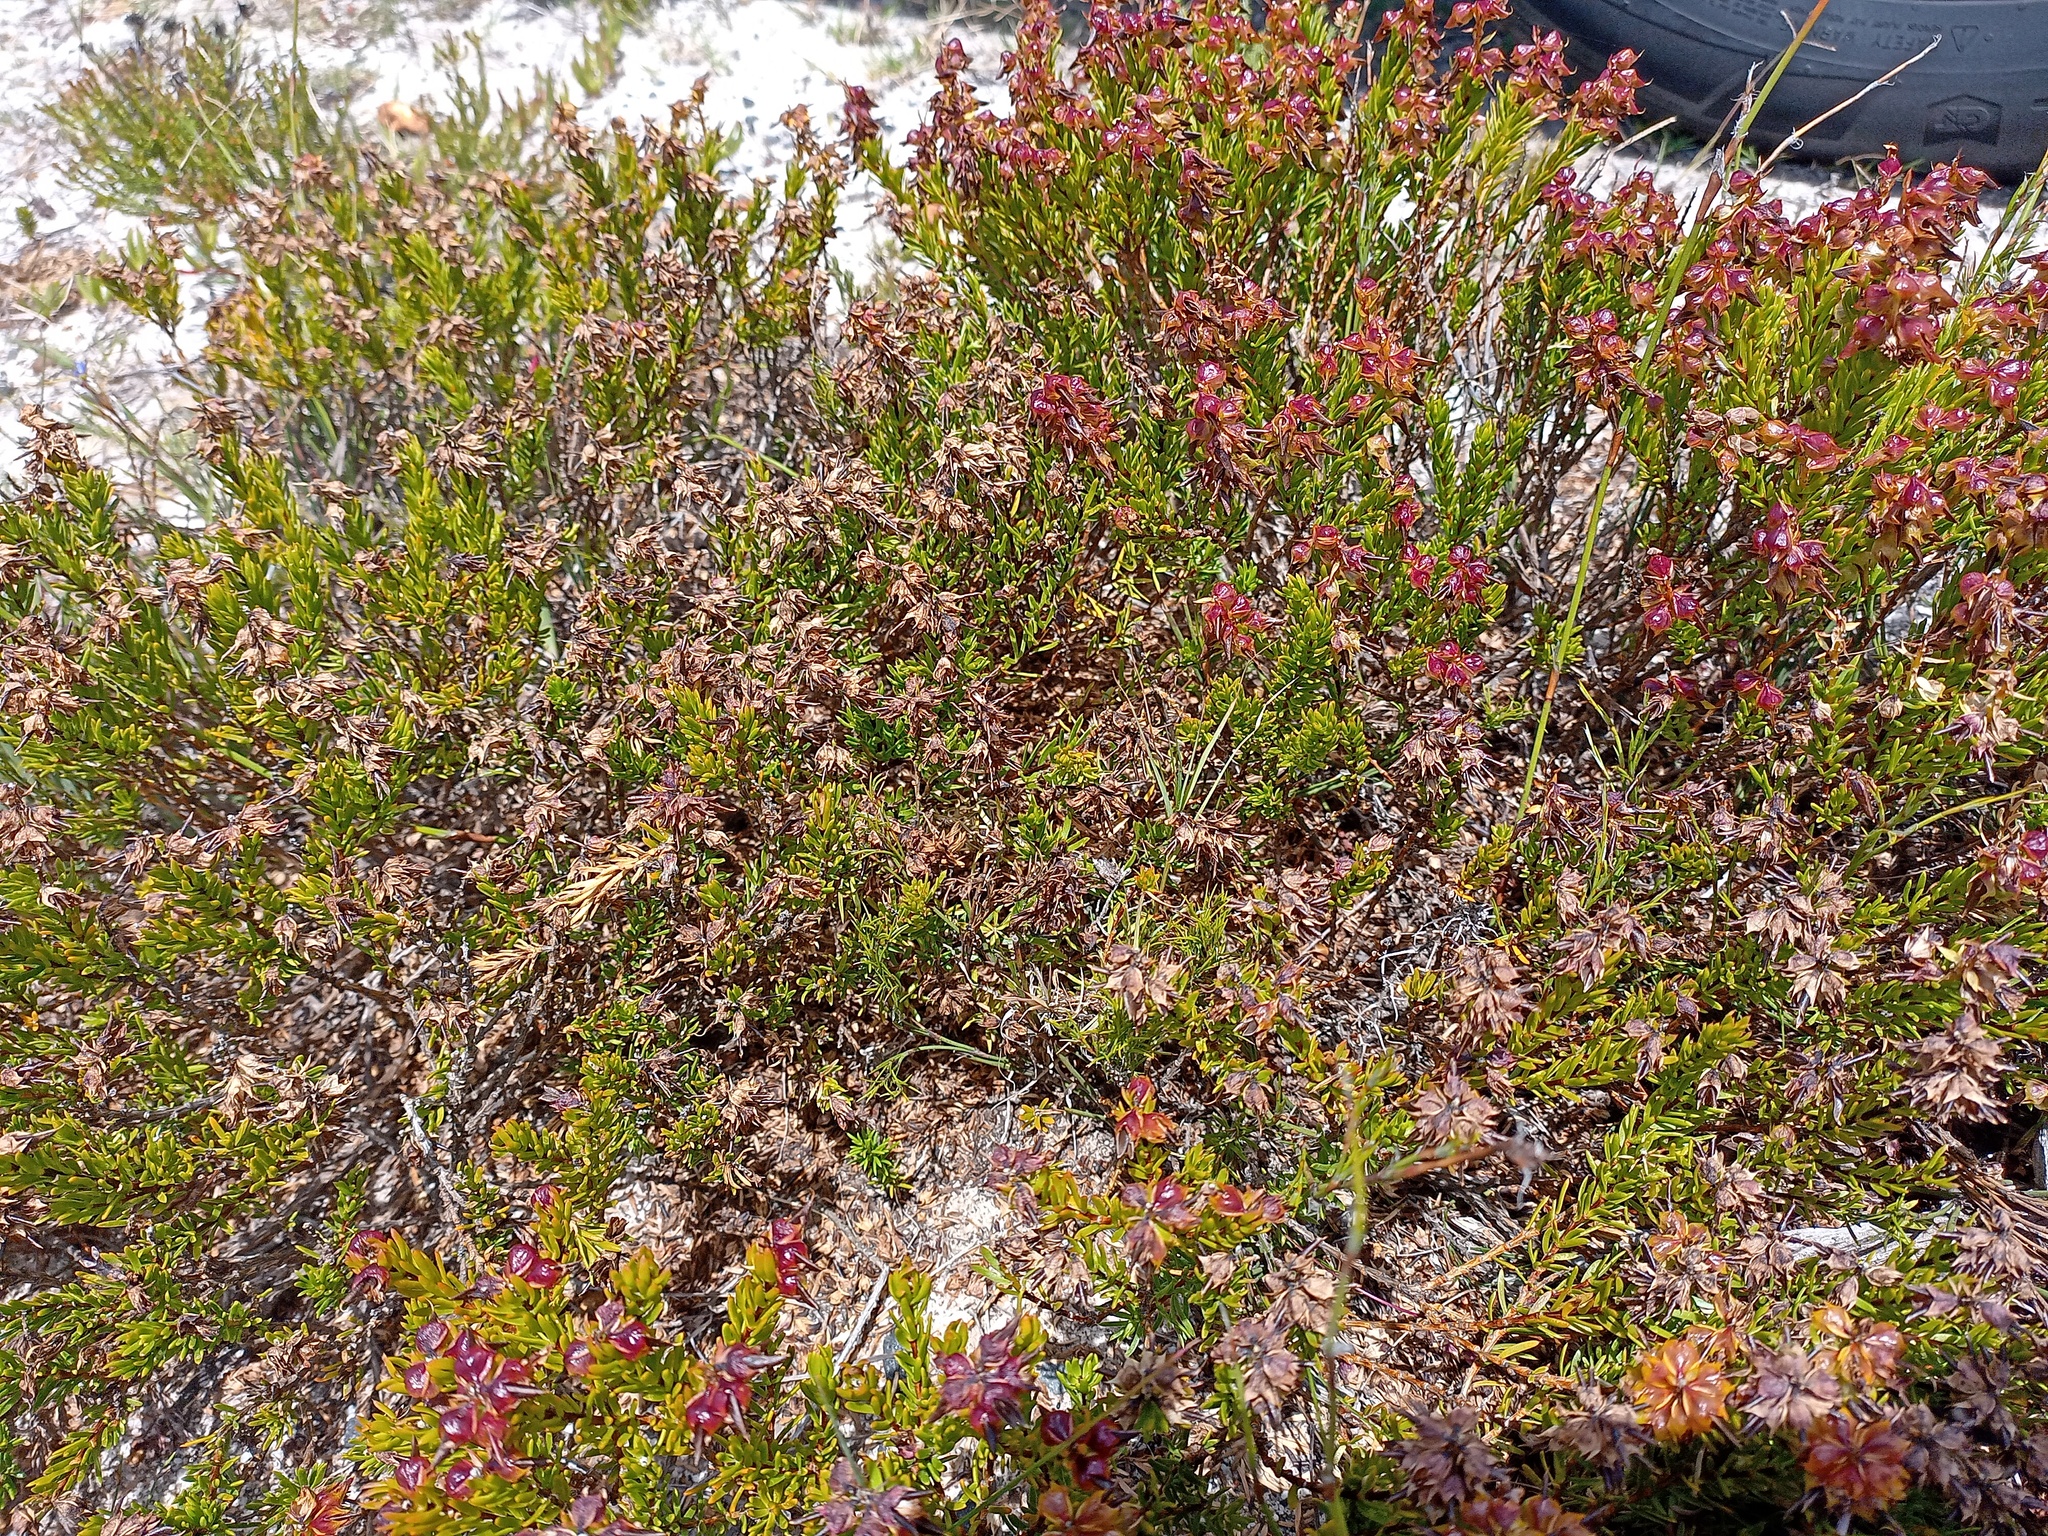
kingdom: Plantae
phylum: Tracheophyta
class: Magnoliopsida
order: Fabales
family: Fabaceae
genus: Cyclopia
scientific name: Cyclopia genistoides
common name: Honeybush tea
